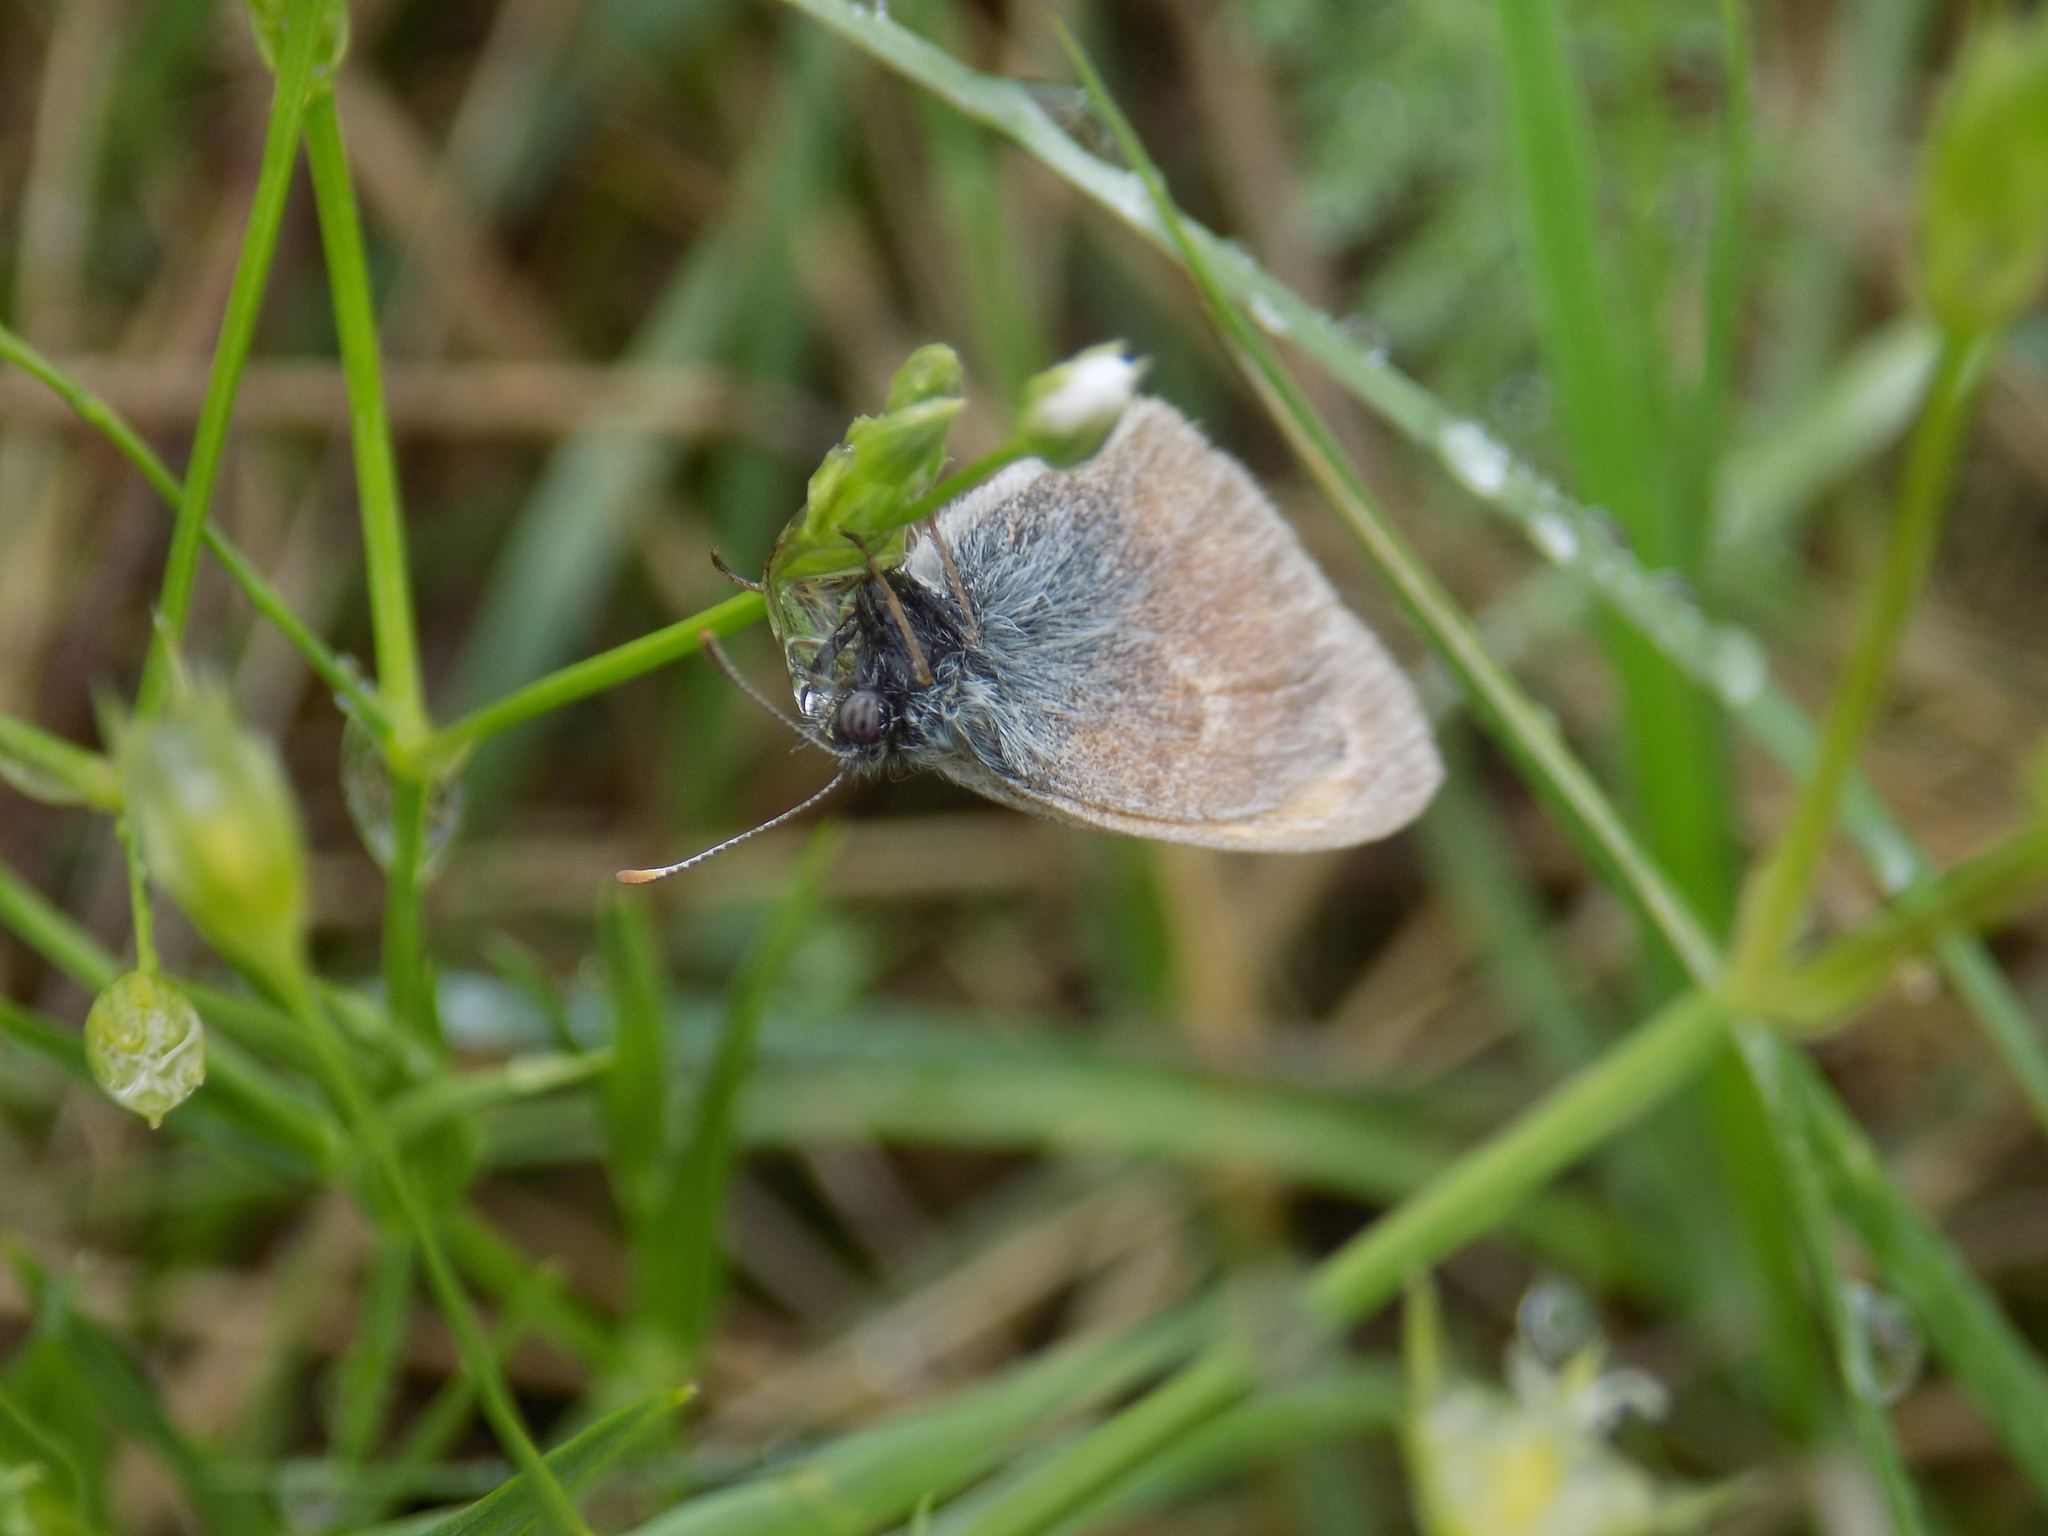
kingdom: Animalia
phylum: Arthropoda
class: Insecta
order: Lepidoptera
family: Nymphalidae
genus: Coenonympha
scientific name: Coenonympha pamphilus
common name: Small heath
